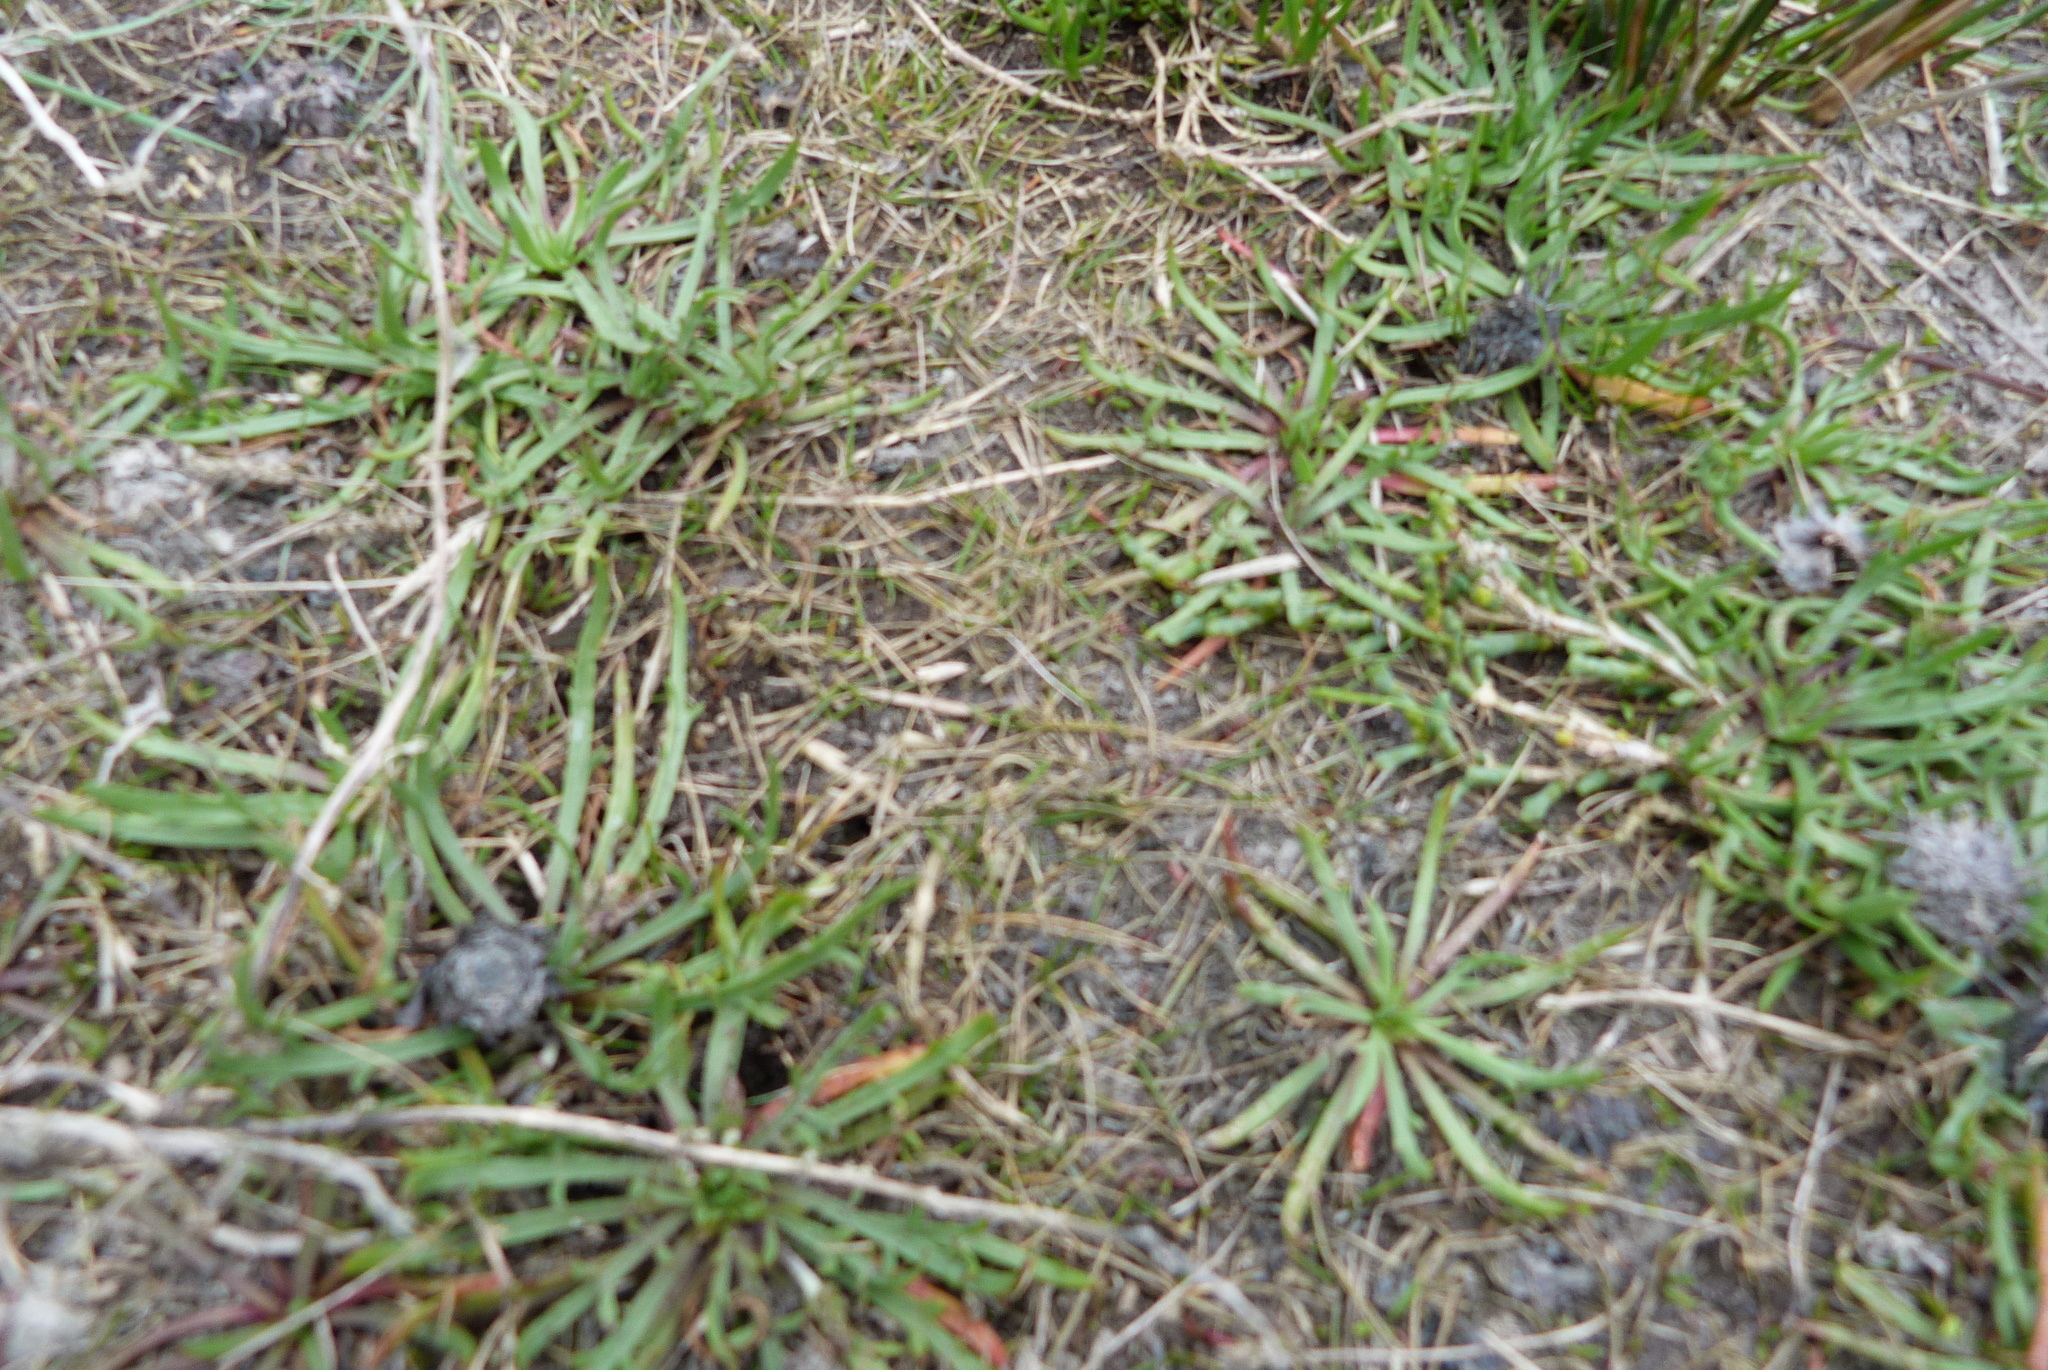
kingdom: Plantae
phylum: Tracheophyta
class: Liliopsida
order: Poales
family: Poaceae
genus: Zoysia
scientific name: Zoysia minima
